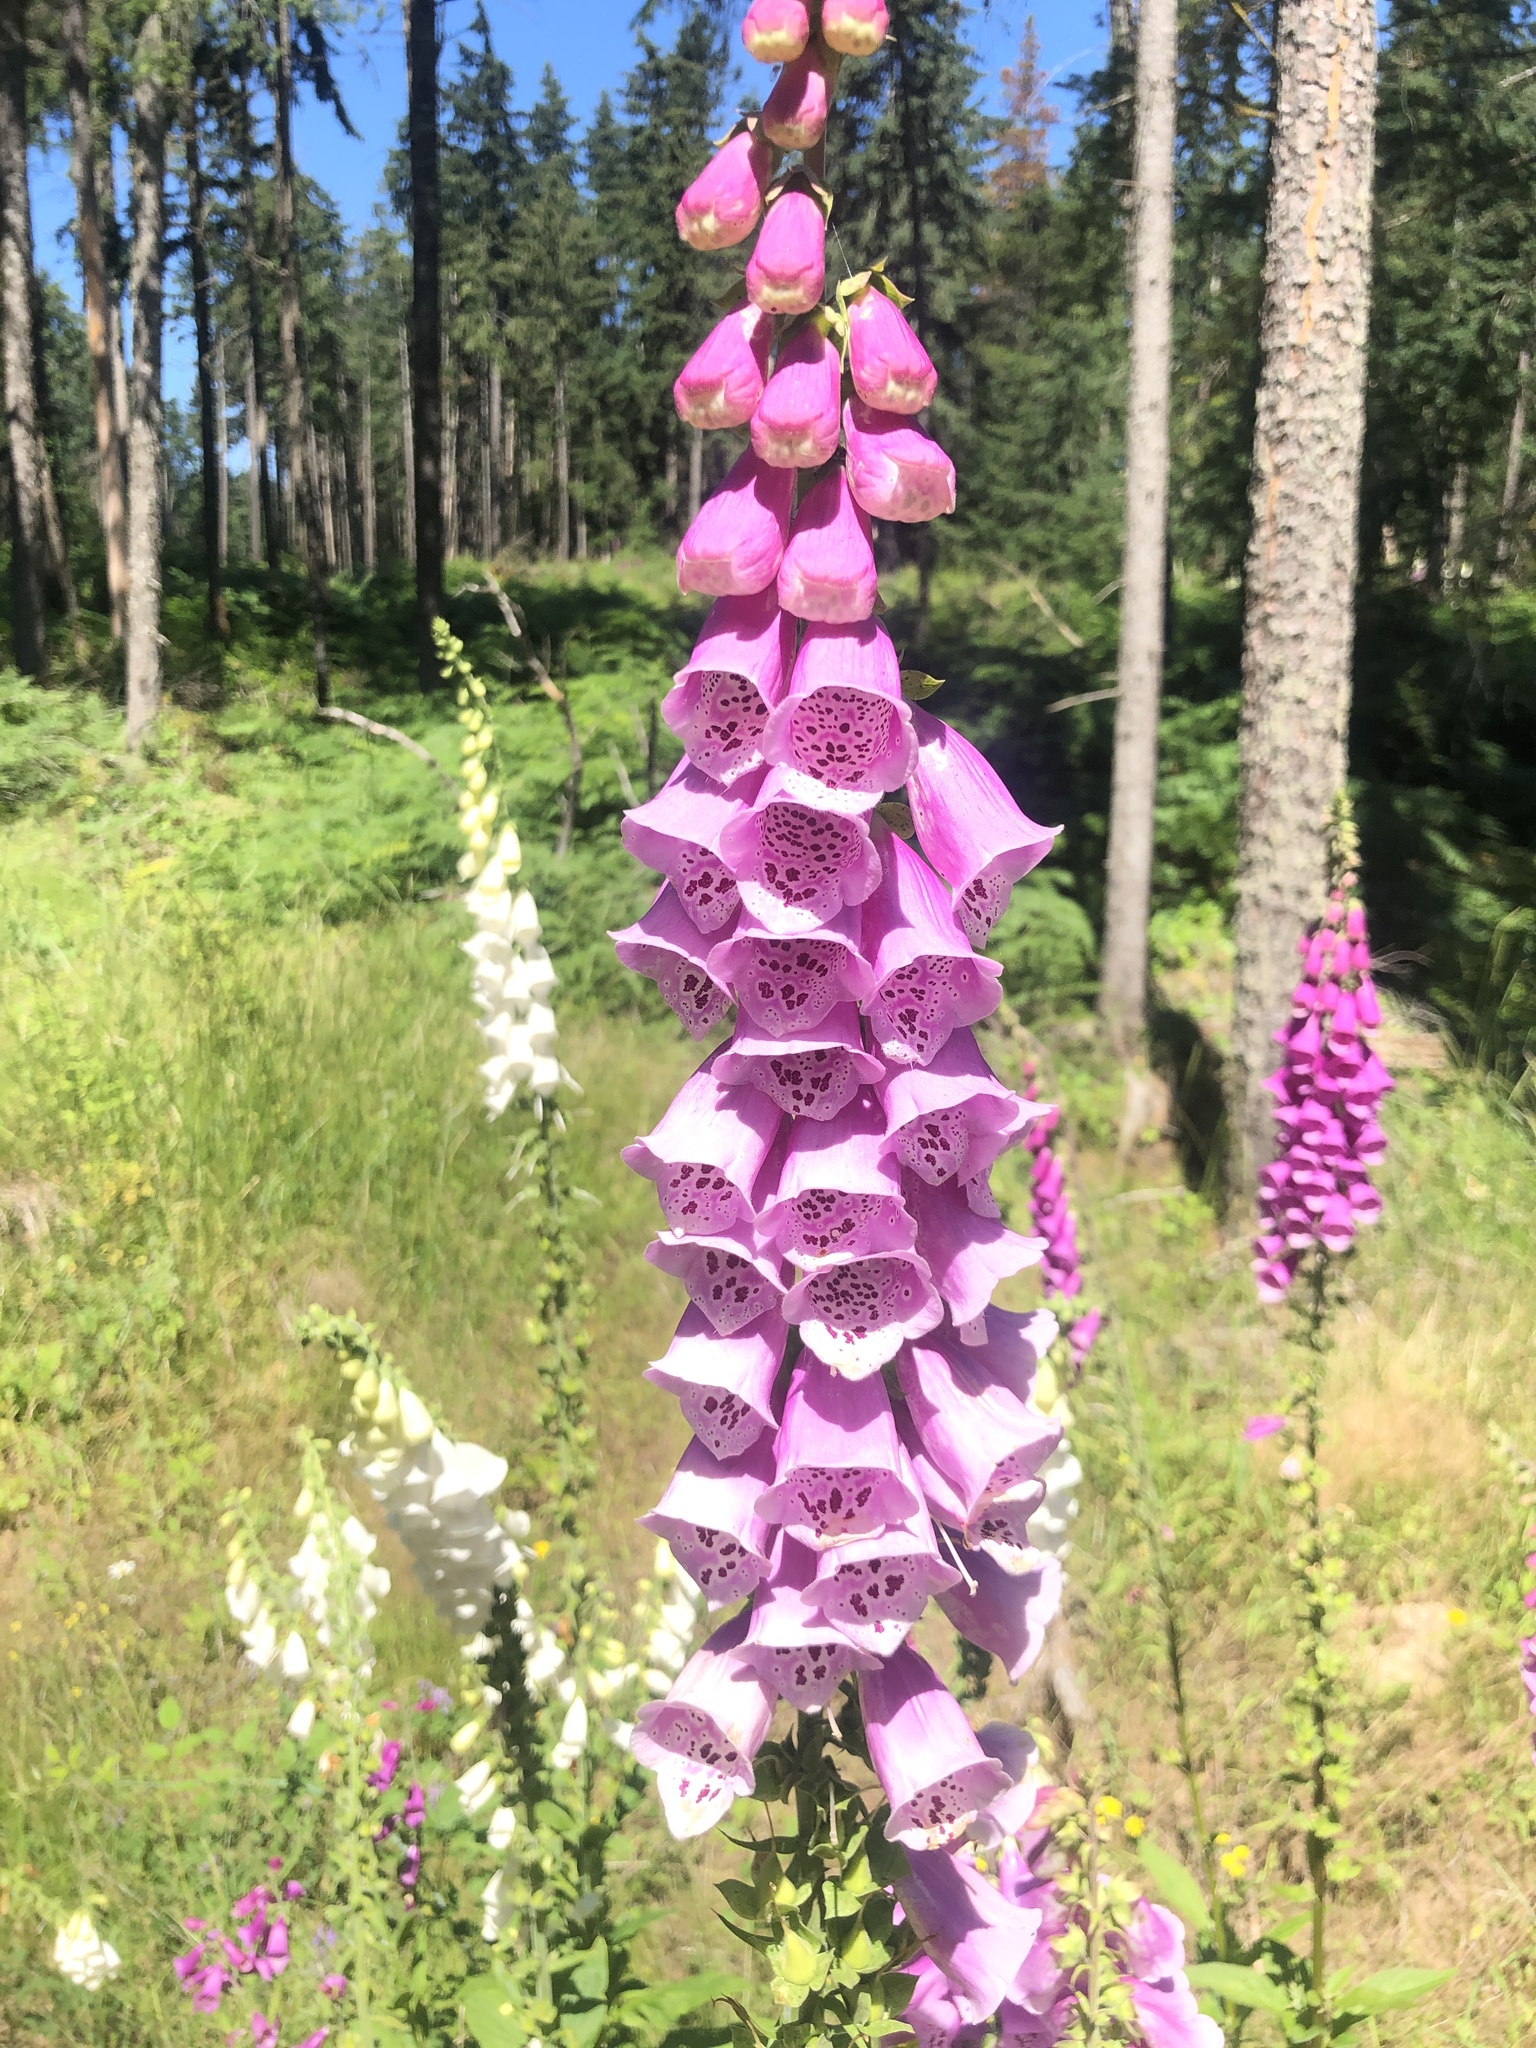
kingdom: Plantae
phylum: Tracheophyta
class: Magnoliopsida
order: Lamiales
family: Plantaginaceae
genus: Digitalis
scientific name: Digitalis purpurea
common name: Foxglove
